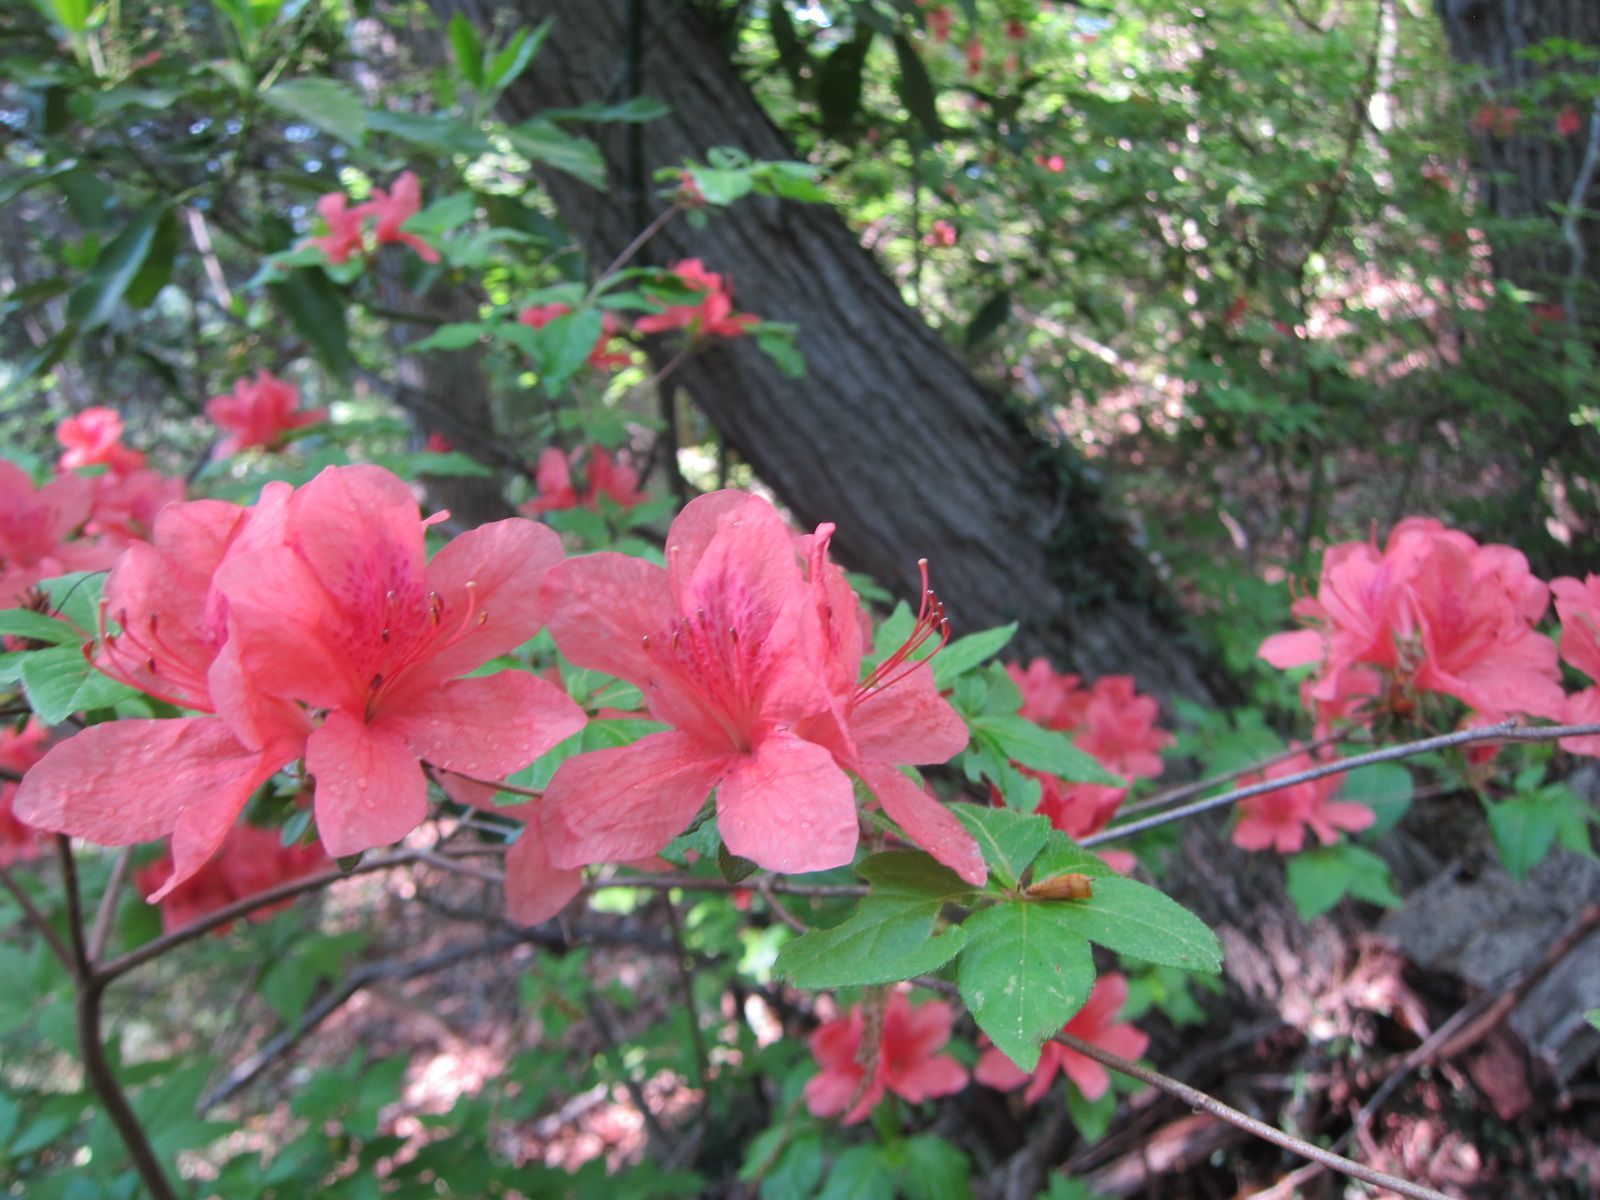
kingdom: Plantae
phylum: Tracheophyta
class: Magnoliopsida
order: Ericales
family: Ericaceae
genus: Rhododendron
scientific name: Rhododendron kaempferi
